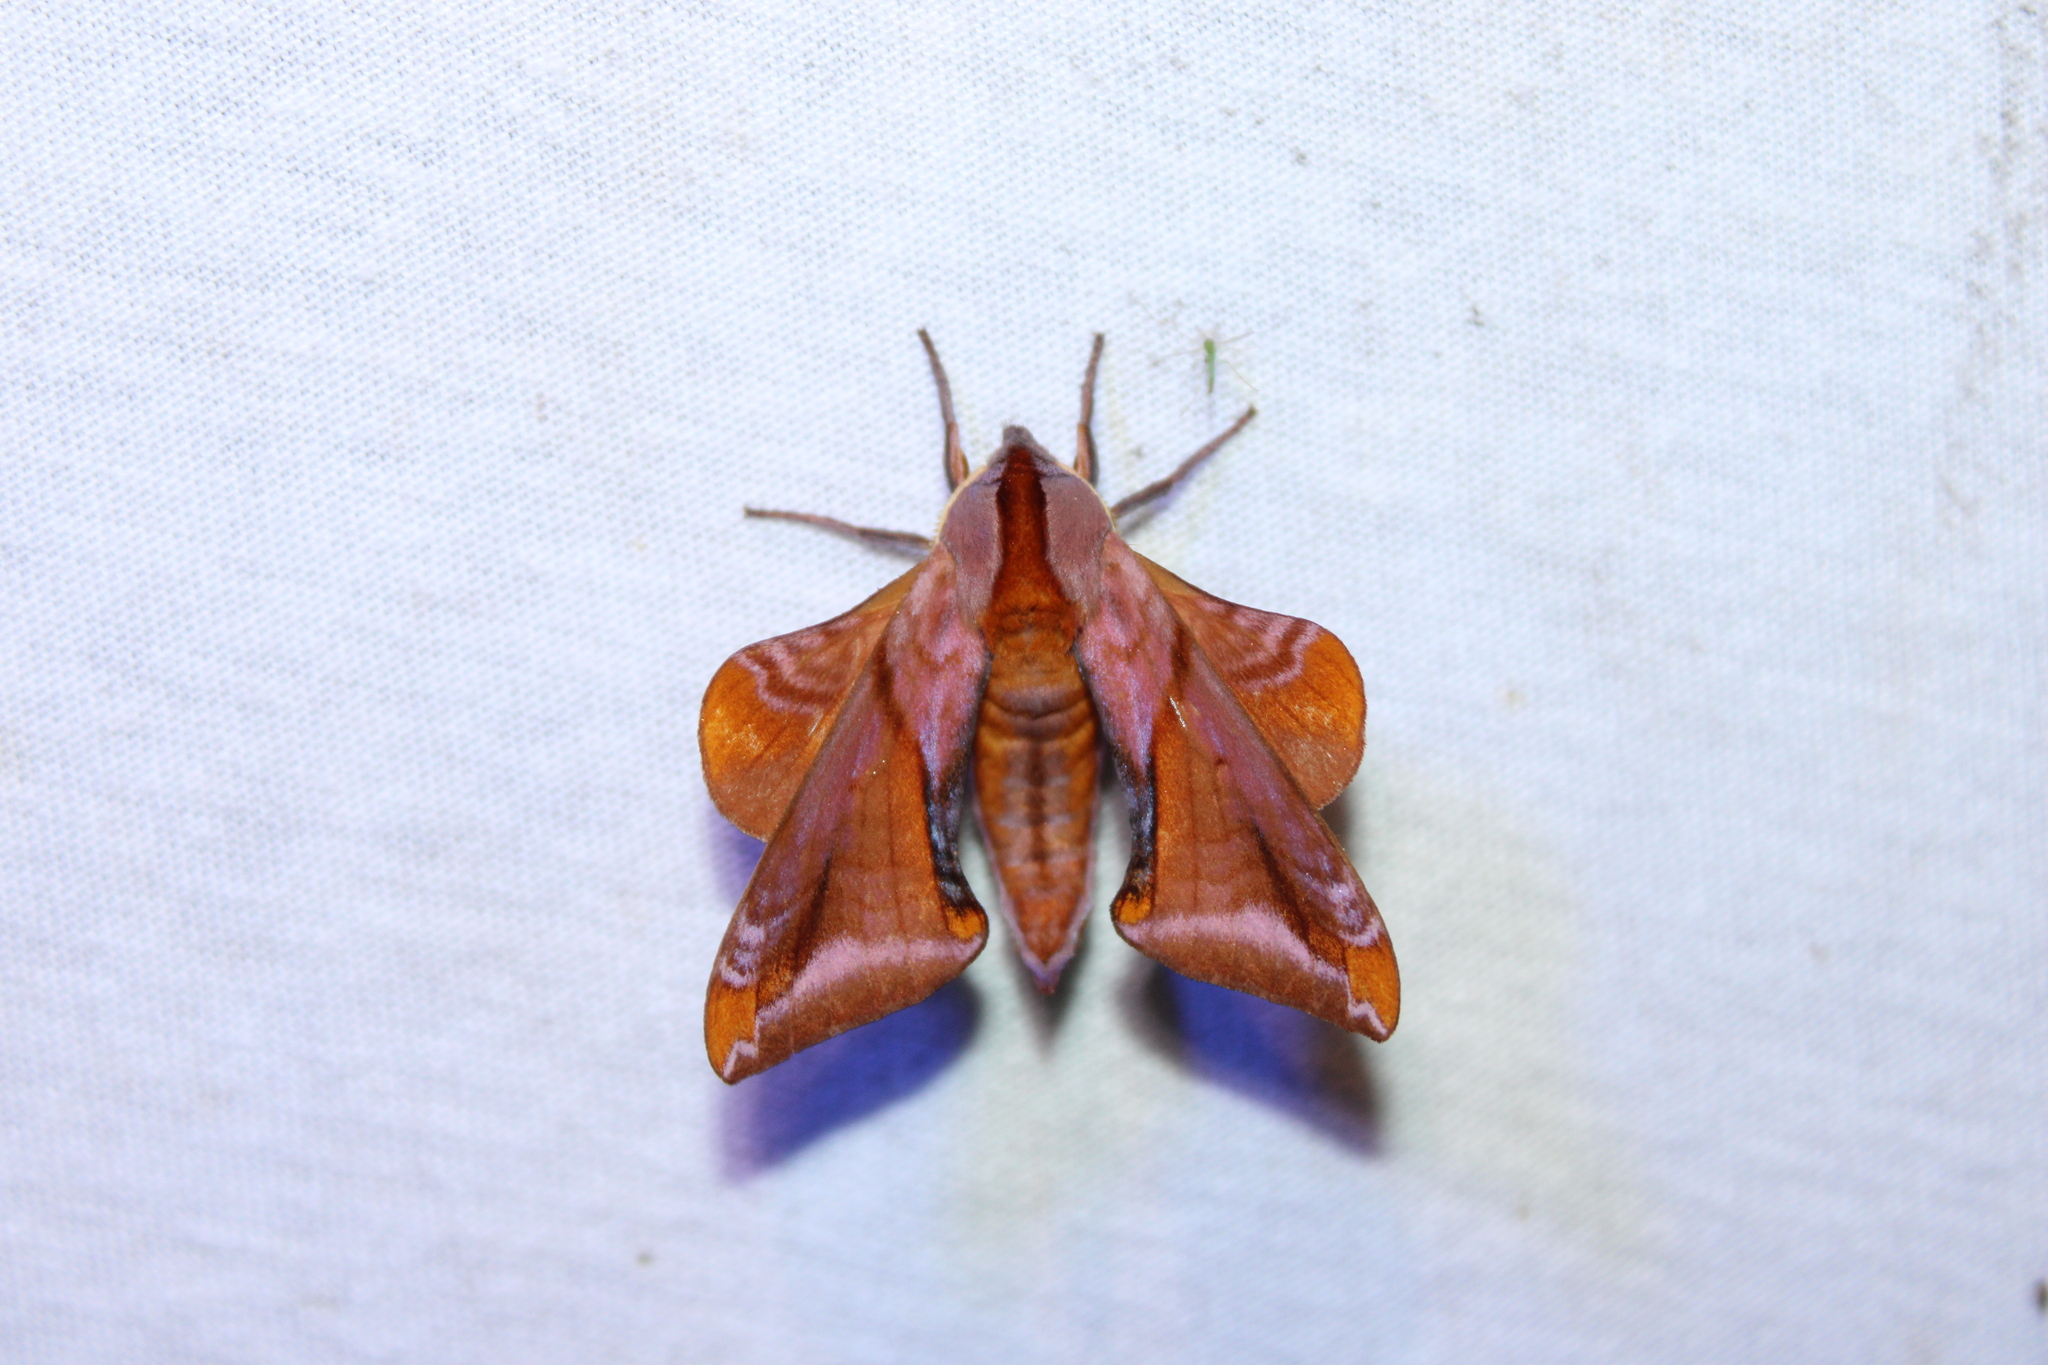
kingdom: Animalia
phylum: Arthropoda
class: Insecta
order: Lepidoptera
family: Sphingidae
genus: Paonias
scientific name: Paonias astylus
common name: Huckleberry sphinx
